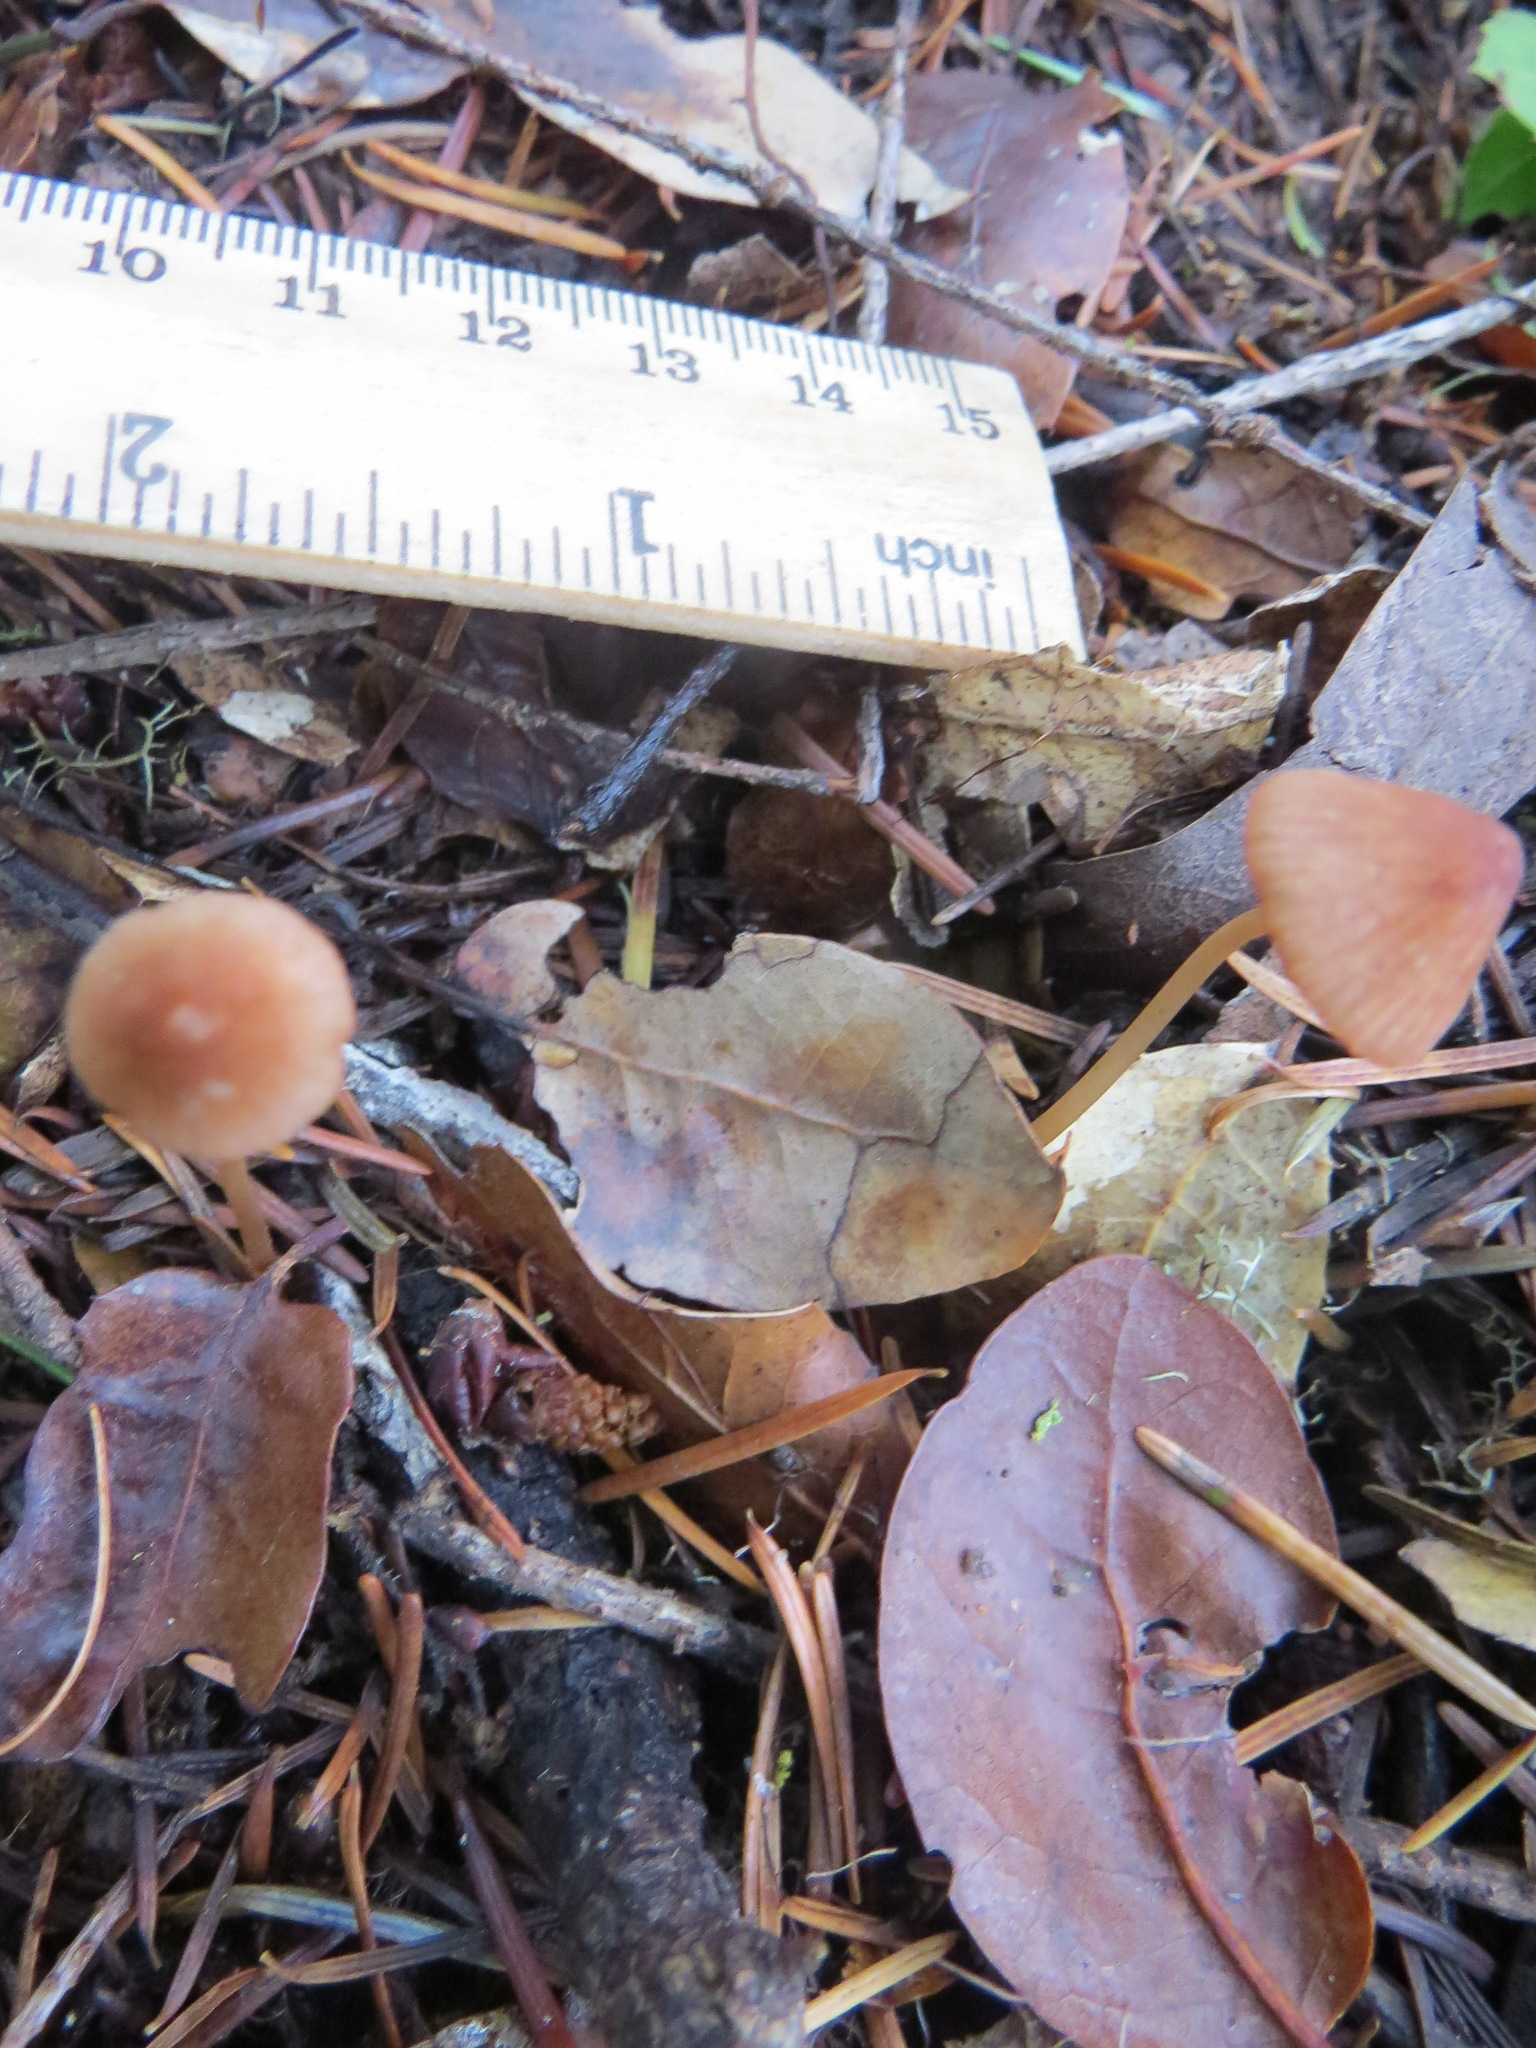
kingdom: Fungi
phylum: Basidiomycota
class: Agaricomycetes
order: Agaricales
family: Mycenaceae
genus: Mycena
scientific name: Mycena
